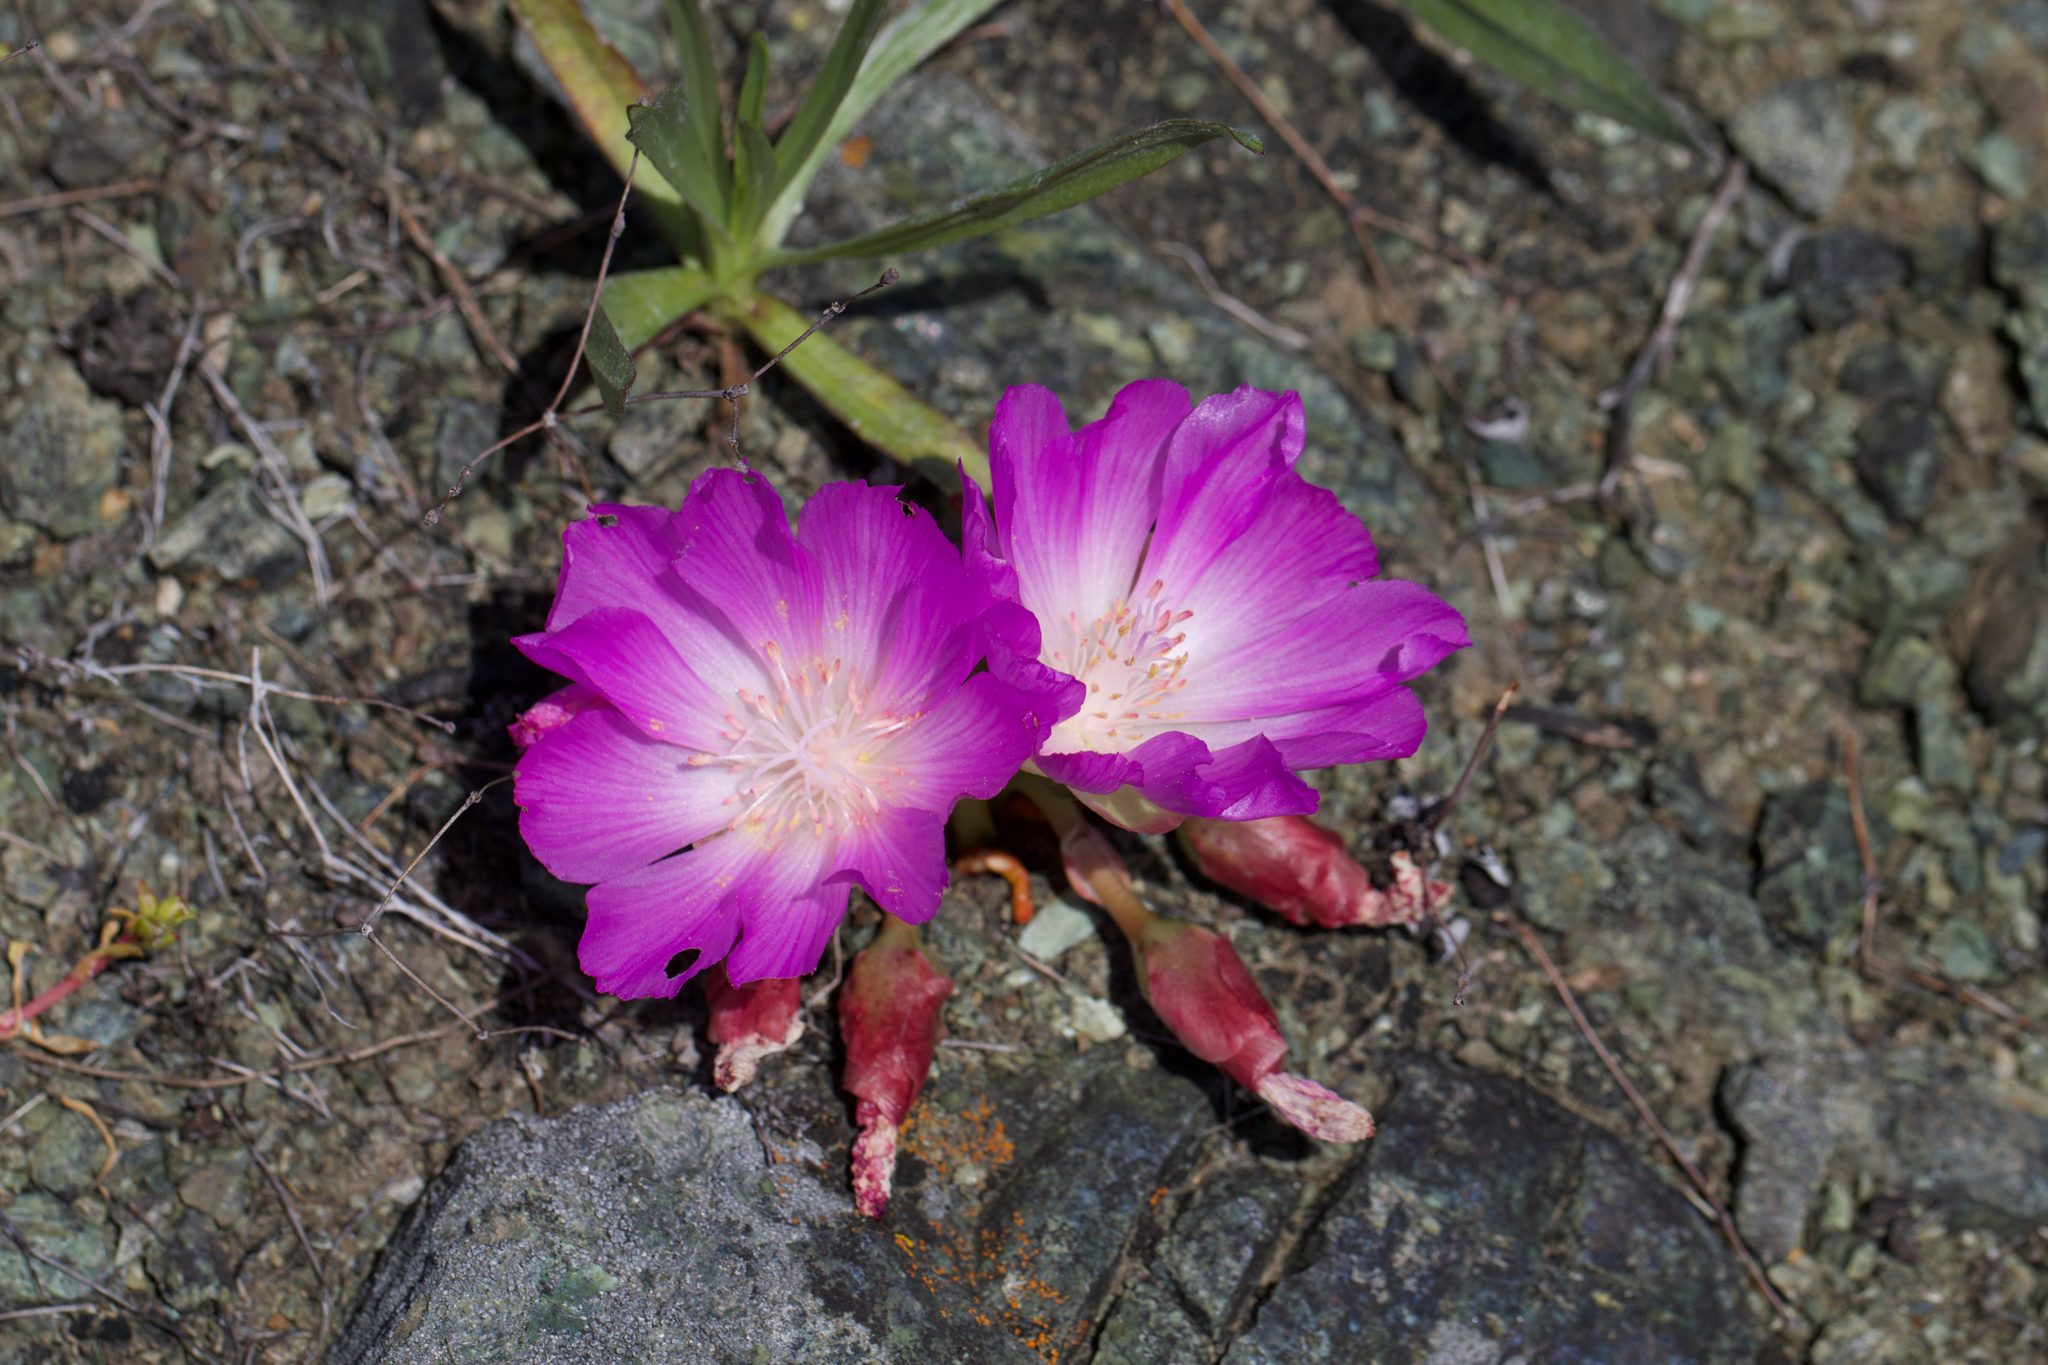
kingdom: Plantae
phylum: Tracheophyta
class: Magnoliopsida
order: Caryophyllales
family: Montiaceae
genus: Lewisia
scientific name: Lewisia rediviva
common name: Bitter-root
